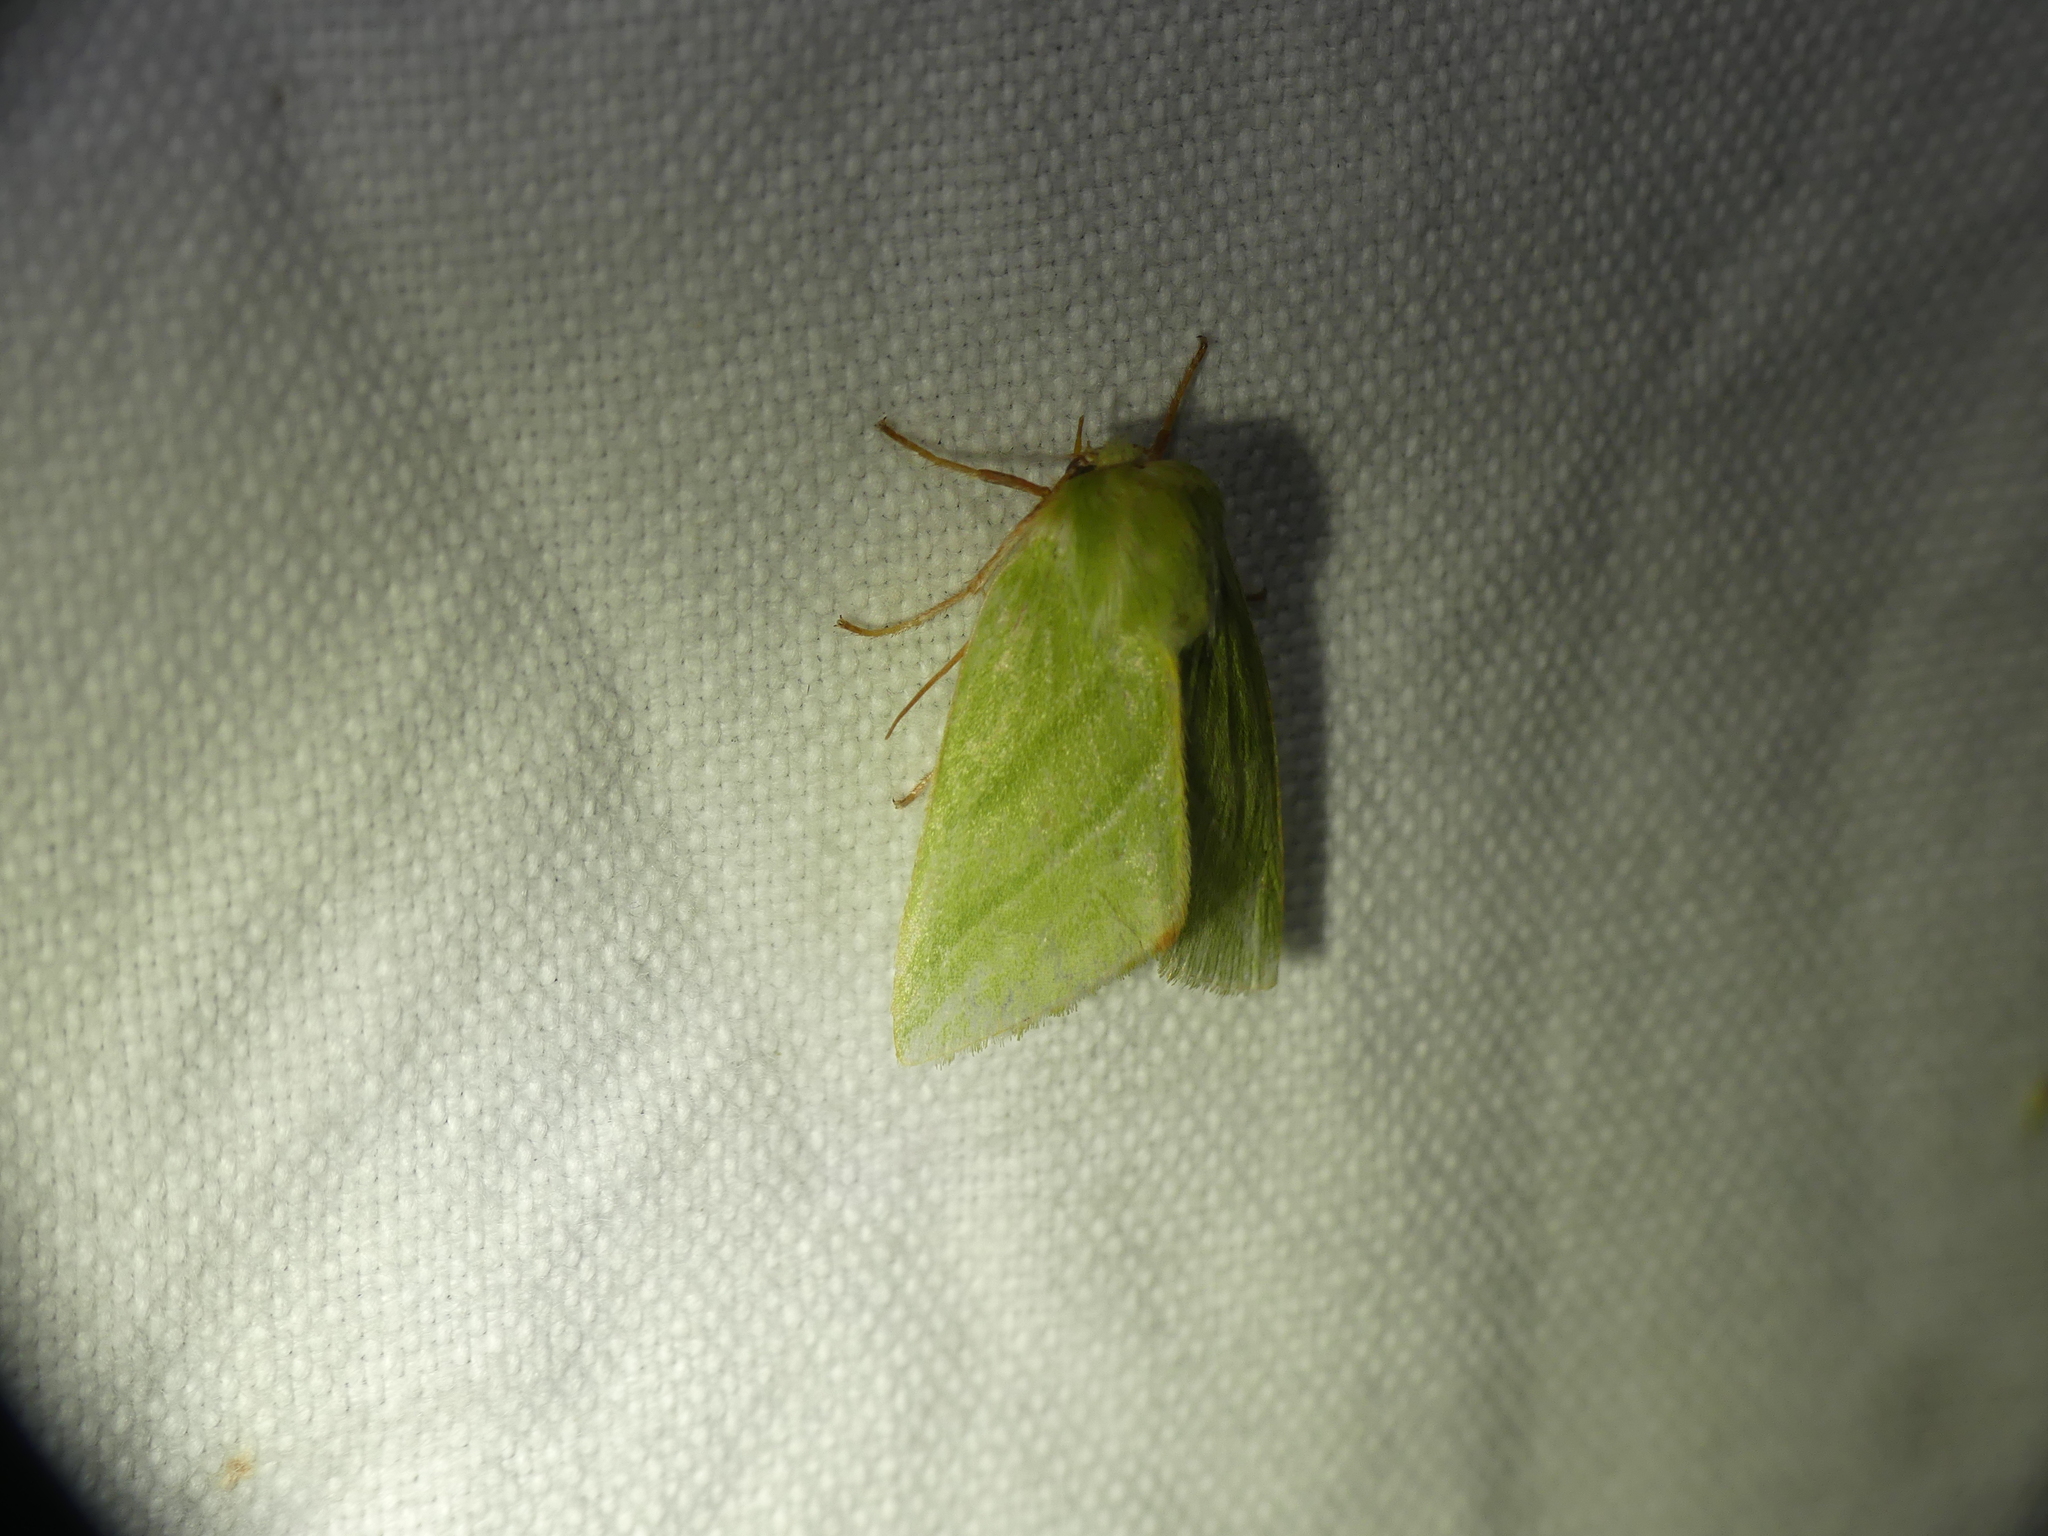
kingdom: Animalia
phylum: Arthropoda
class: Insecta
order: Lepidoptera
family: Nolidae
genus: Pseudoips
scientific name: Pseudoips prasinana
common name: Green silver-lines
